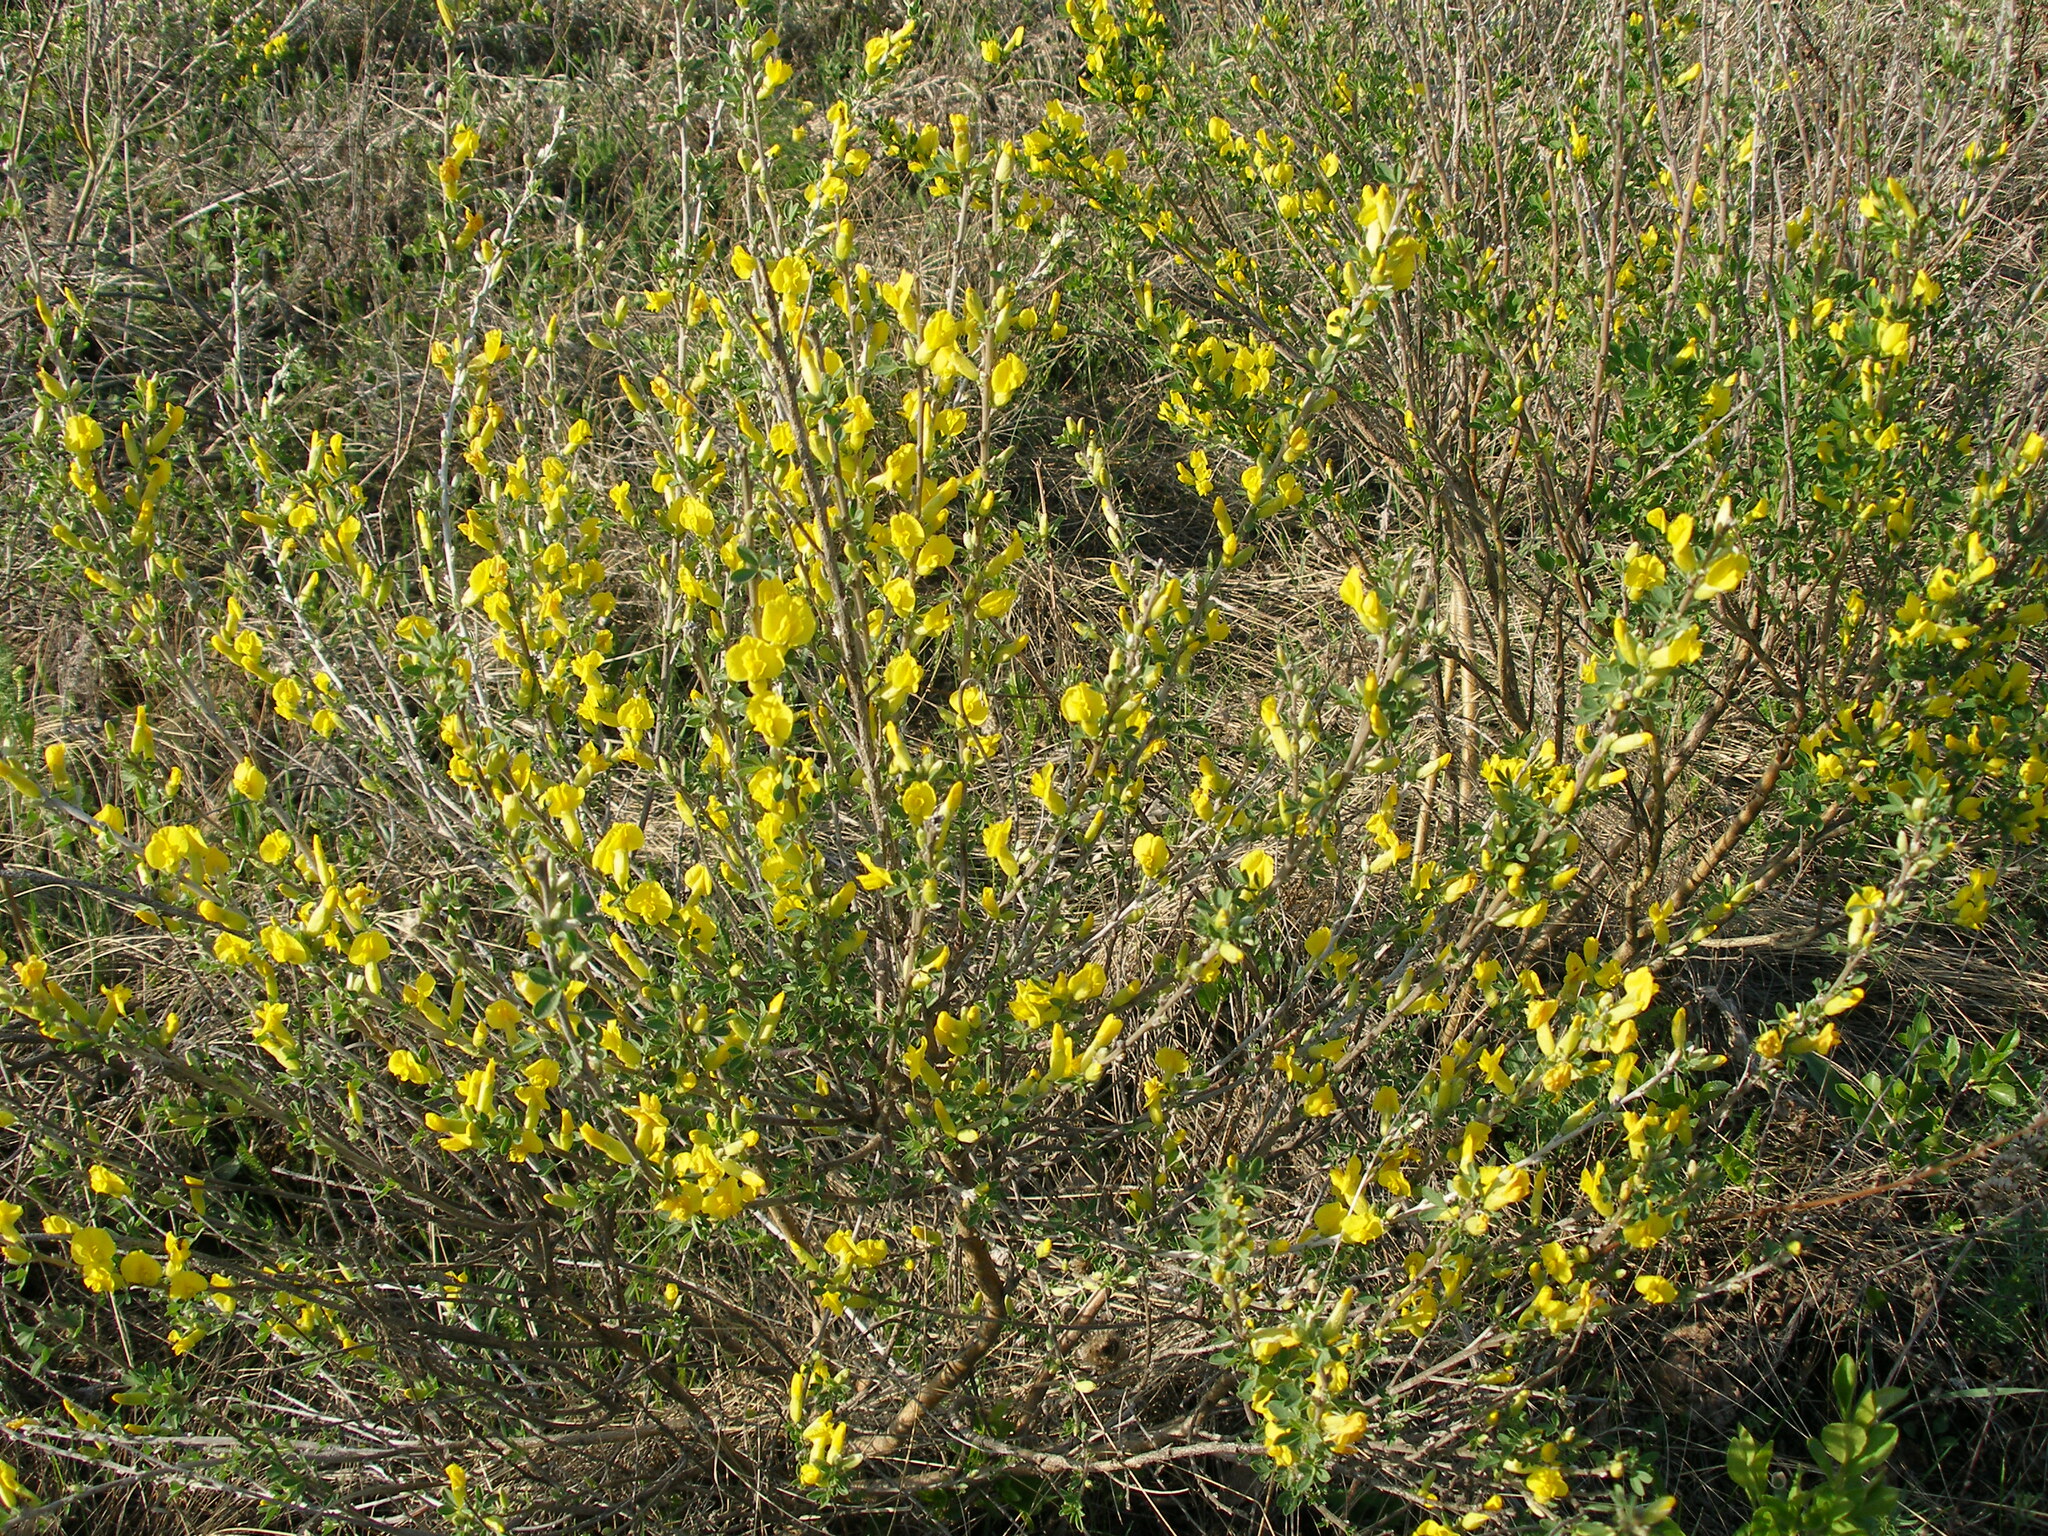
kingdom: Plantae
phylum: Tracheophyta
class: Magnoliopsida
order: Fabales
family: Fabaceae
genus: Chamaecytisus
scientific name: Chamaecytisus ruthenicus
